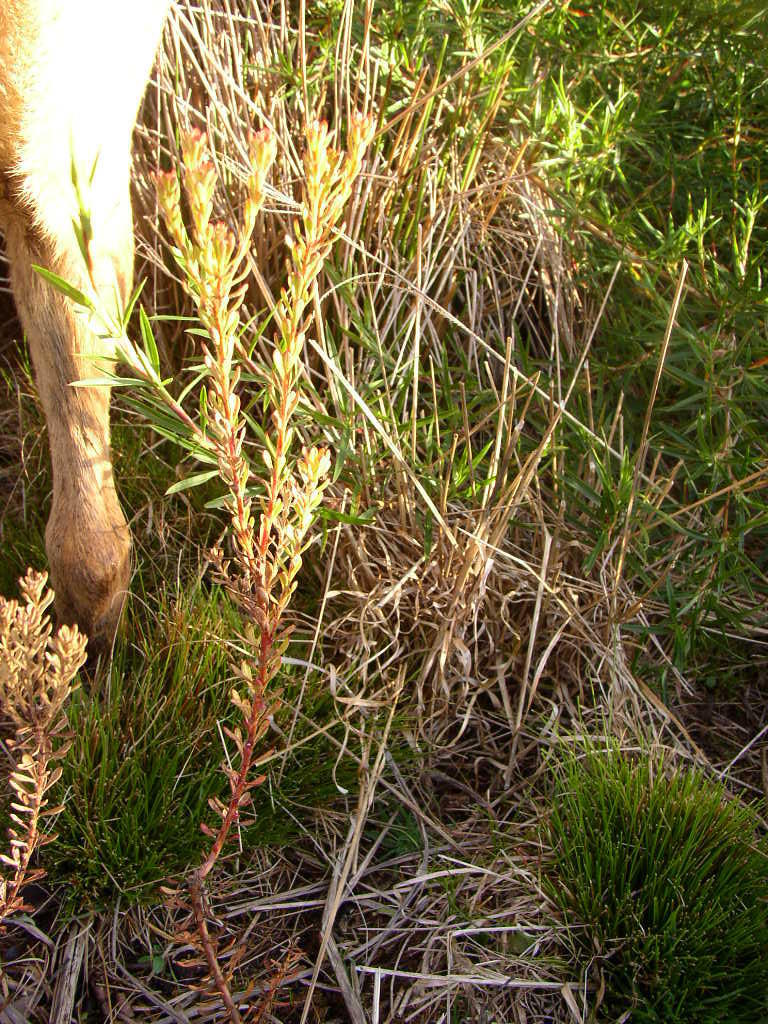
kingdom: Plantae
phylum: Tracheophyta
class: Magnoliopsida
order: Proteales
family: Proteaceae
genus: Leucadendron
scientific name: Leucadendron levisanus
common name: Cape flats conebush
